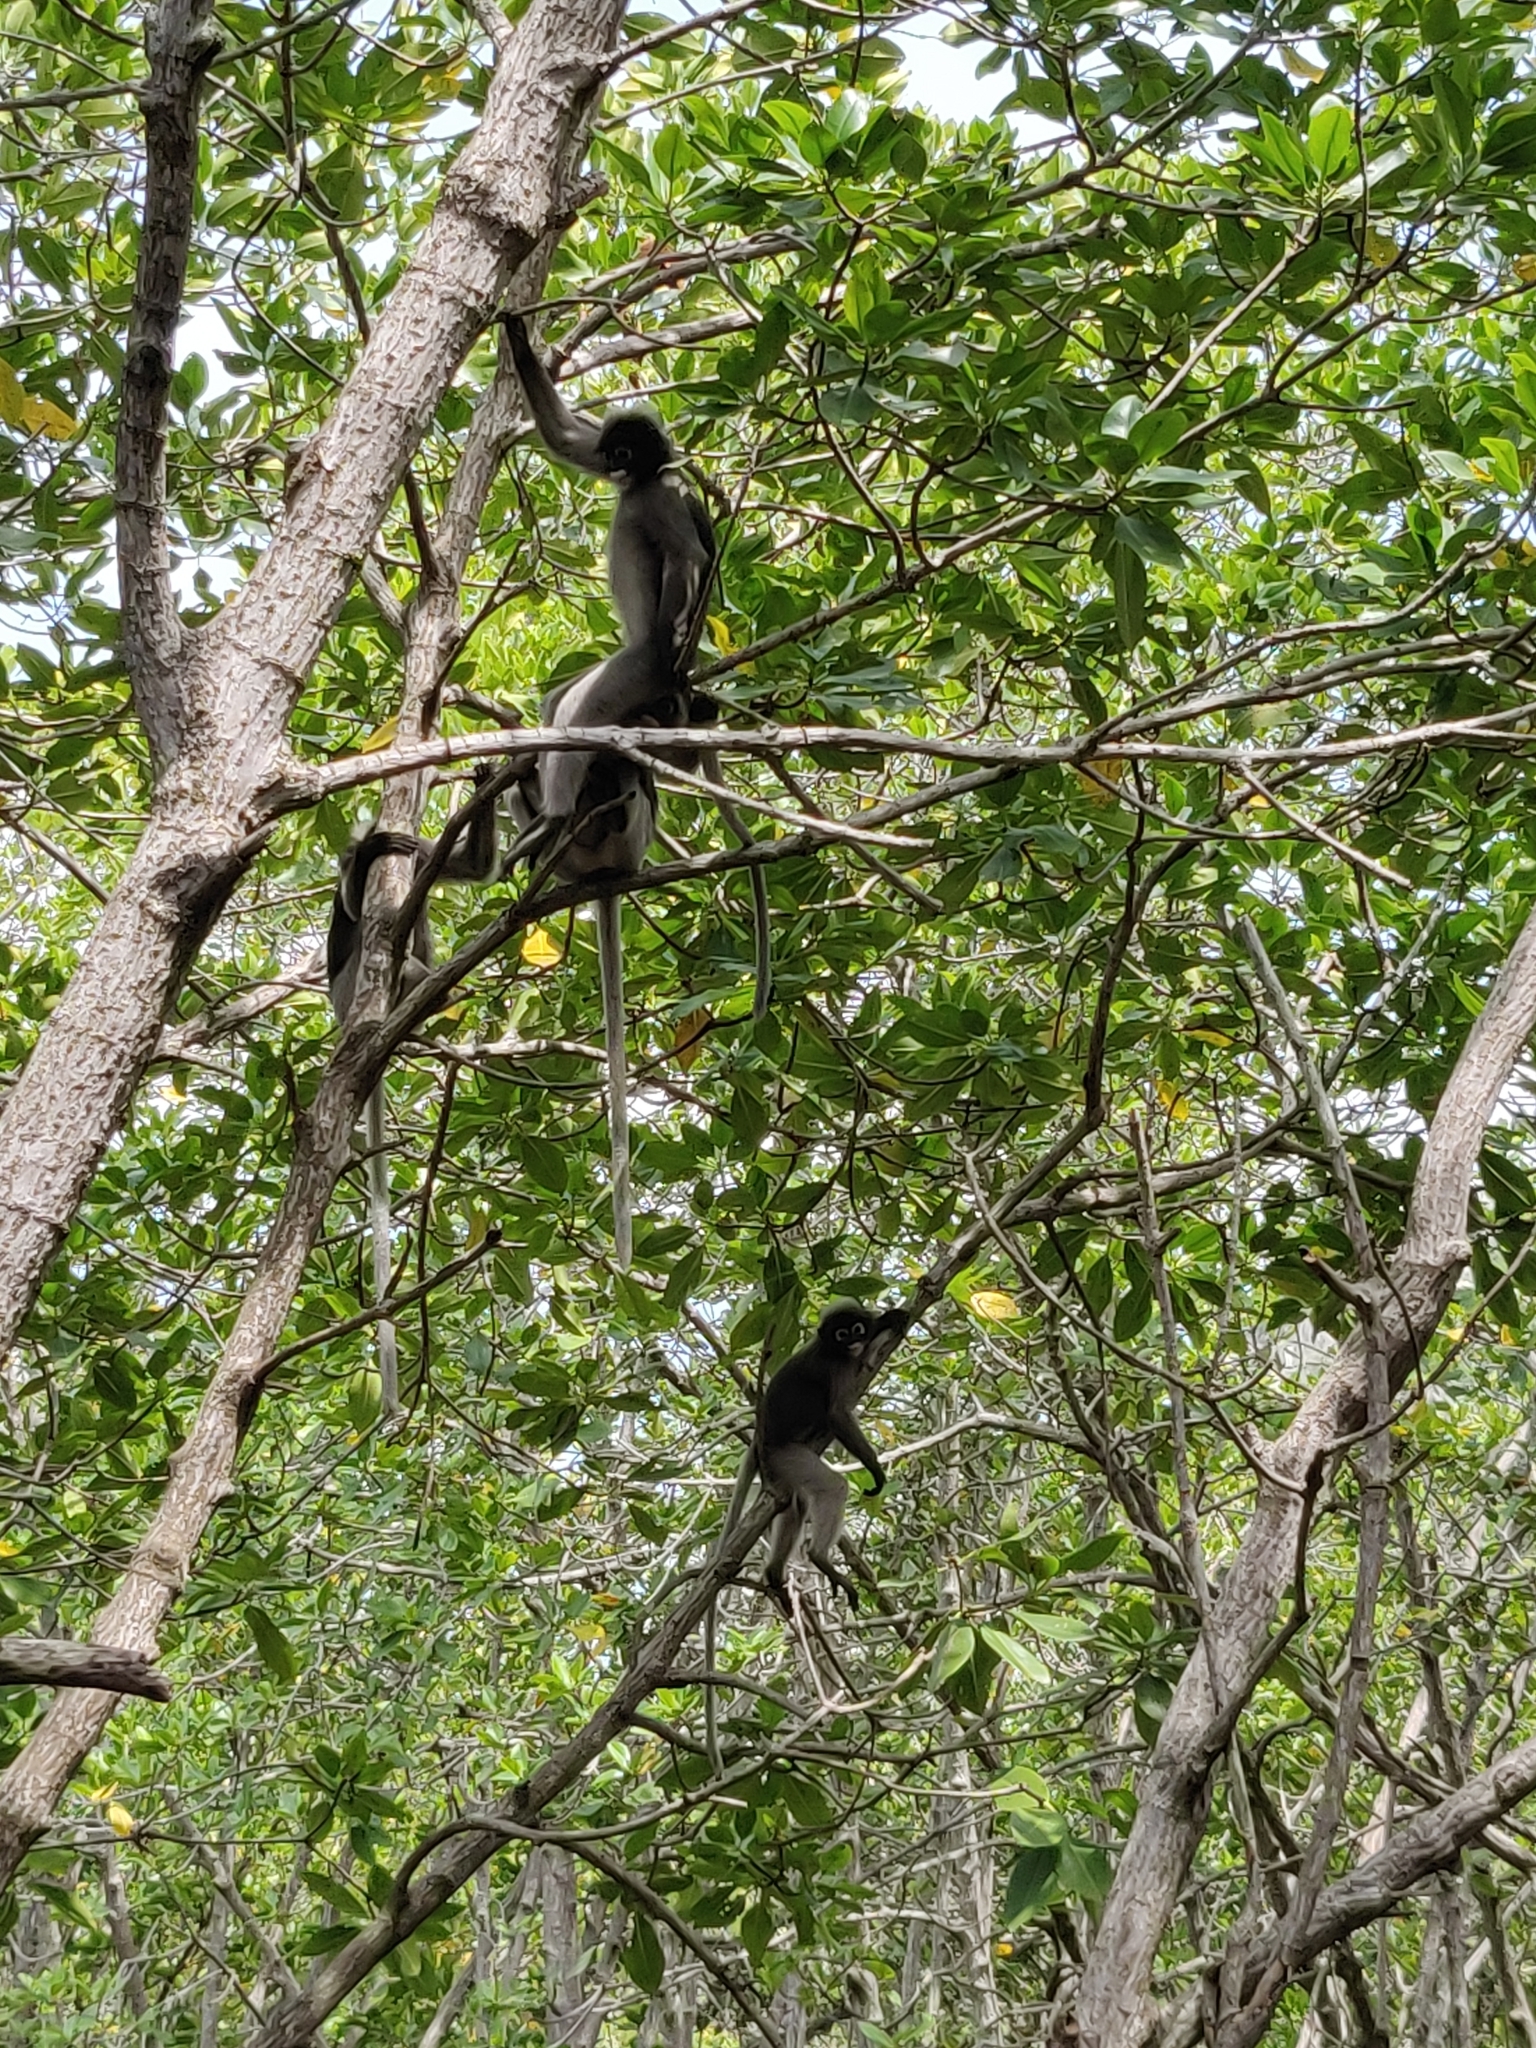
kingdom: Animalia
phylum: Chordata
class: Mammalia
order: Primates
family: Cercopithecidae
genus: Trachypithecus
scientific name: Trachypithecus obscurus
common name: Dusky leaf-monkey
